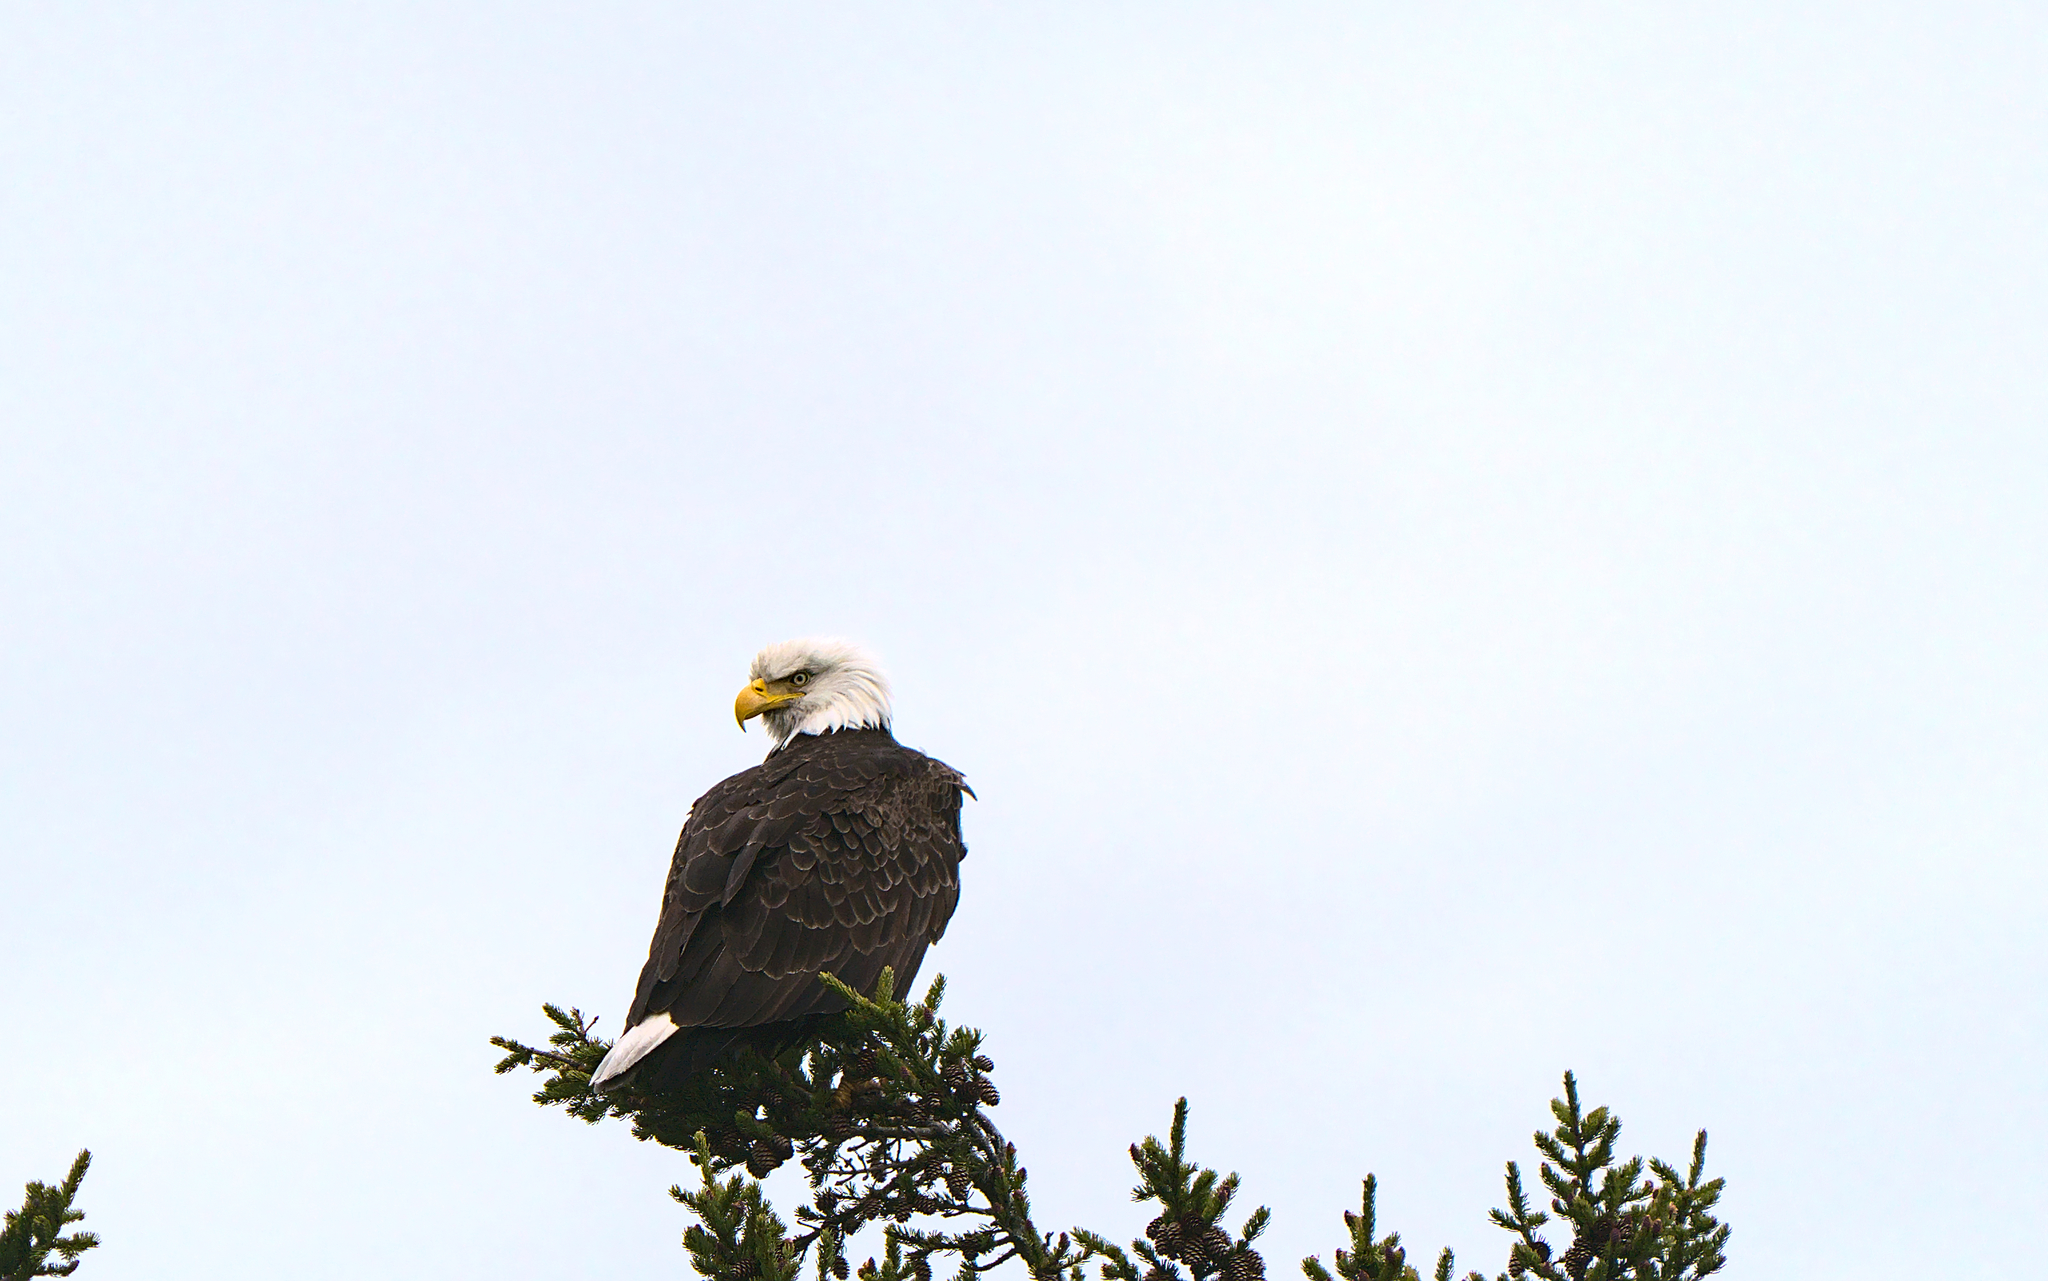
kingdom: Animalia
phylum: Chordata
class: Aves
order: Accipitriformes
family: Accipitridae
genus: Haliaeetus
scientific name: Haliaeetus leucocephalus
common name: Bald eagle
